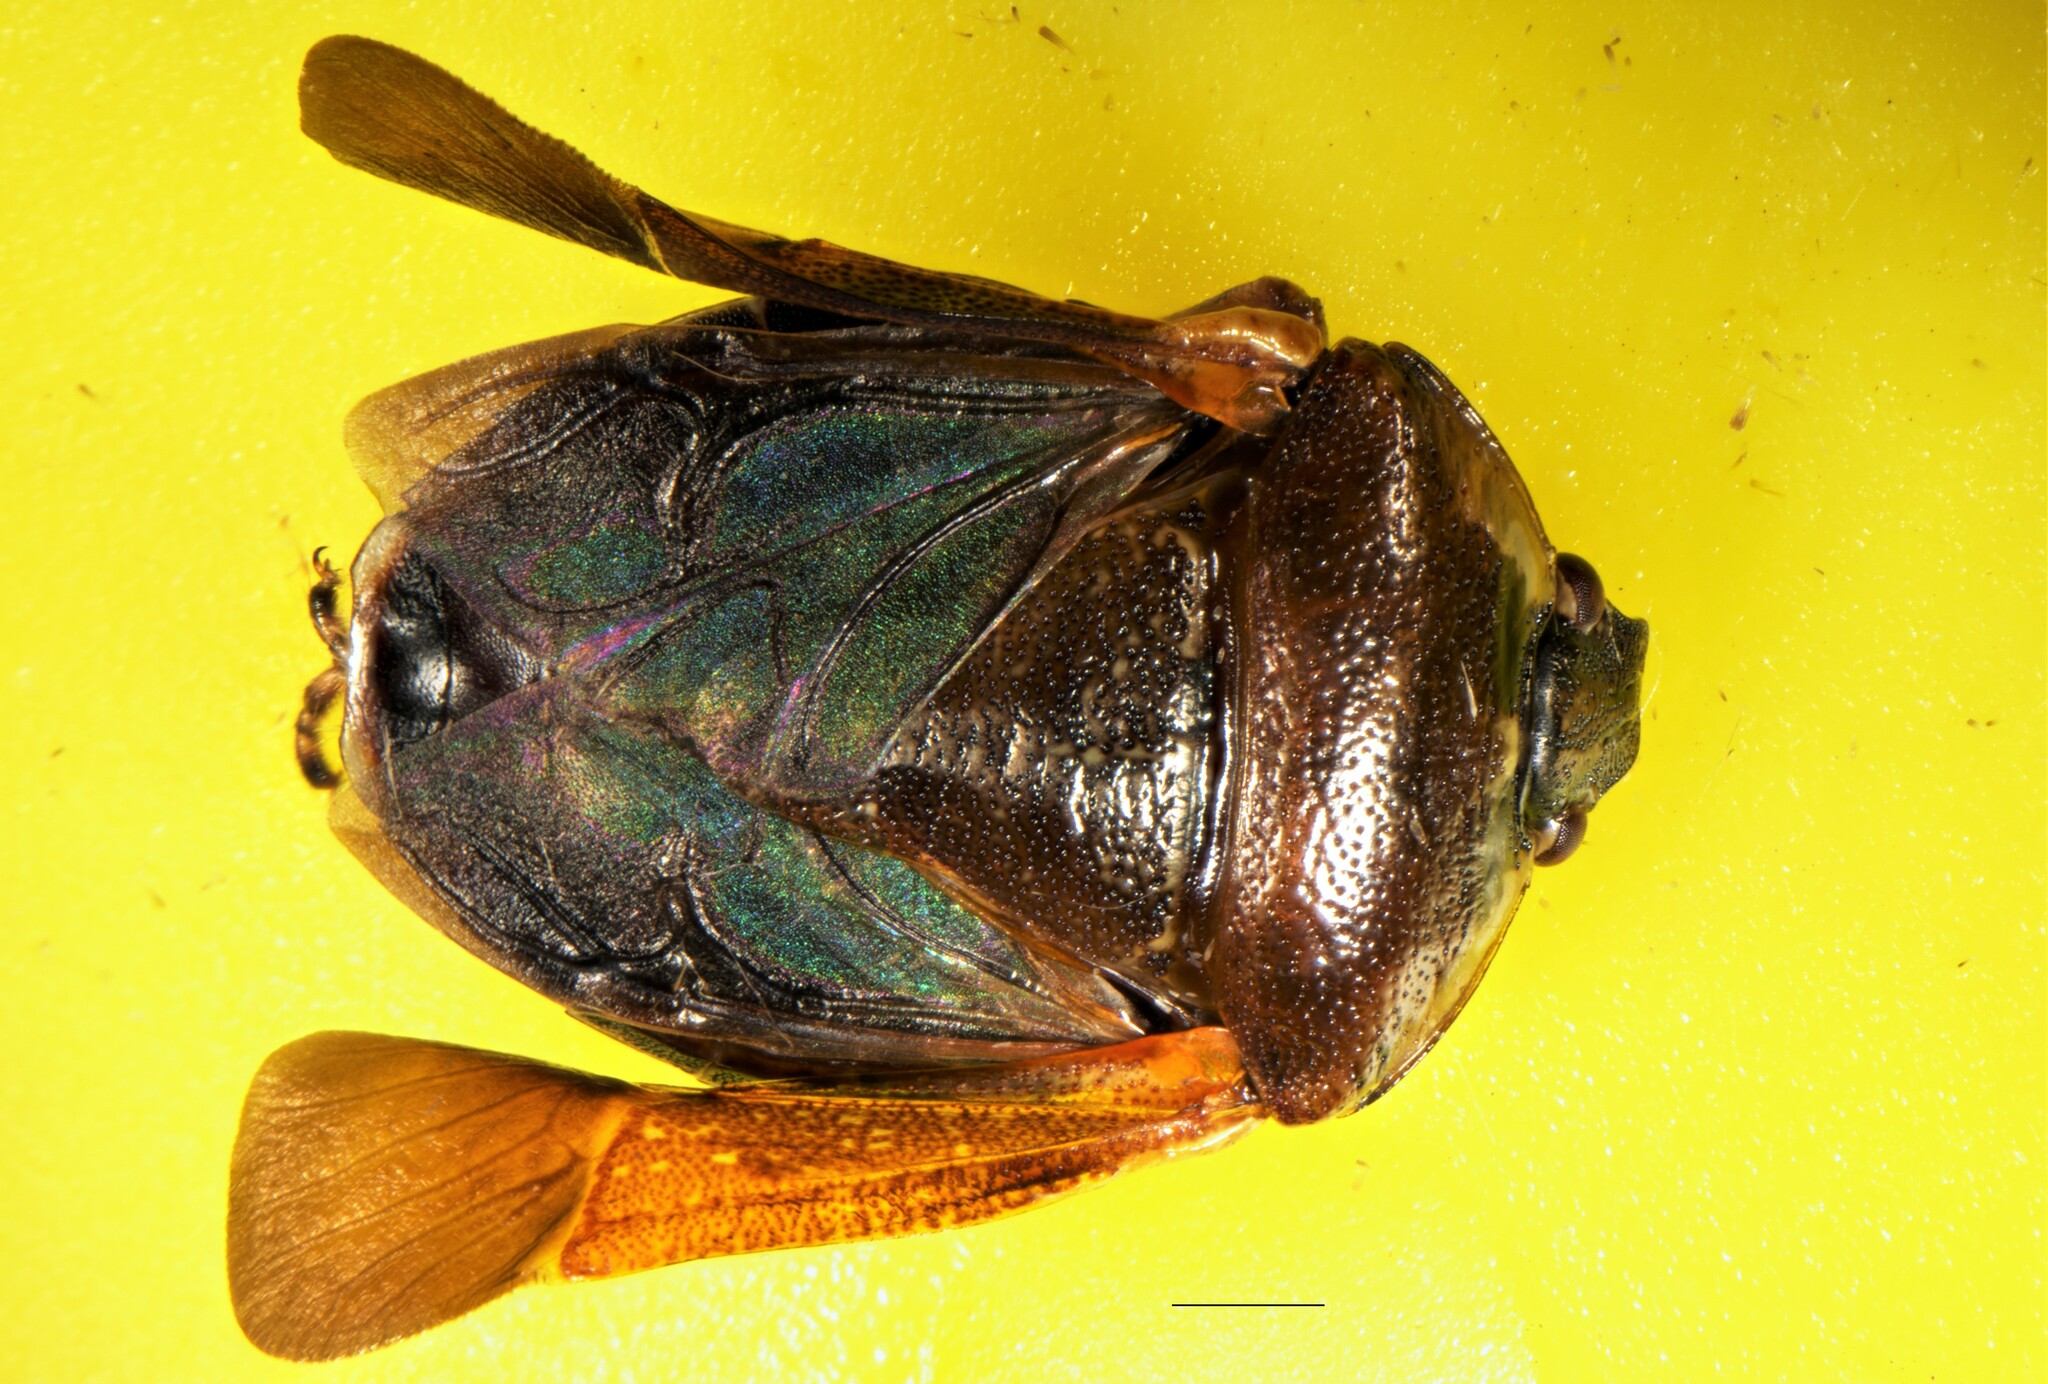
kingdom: Animalia
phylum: Arthropoda
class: Insecta
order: Hemiptera
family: Pentatomidae
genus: Monteithiella
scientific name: Monteithiella
